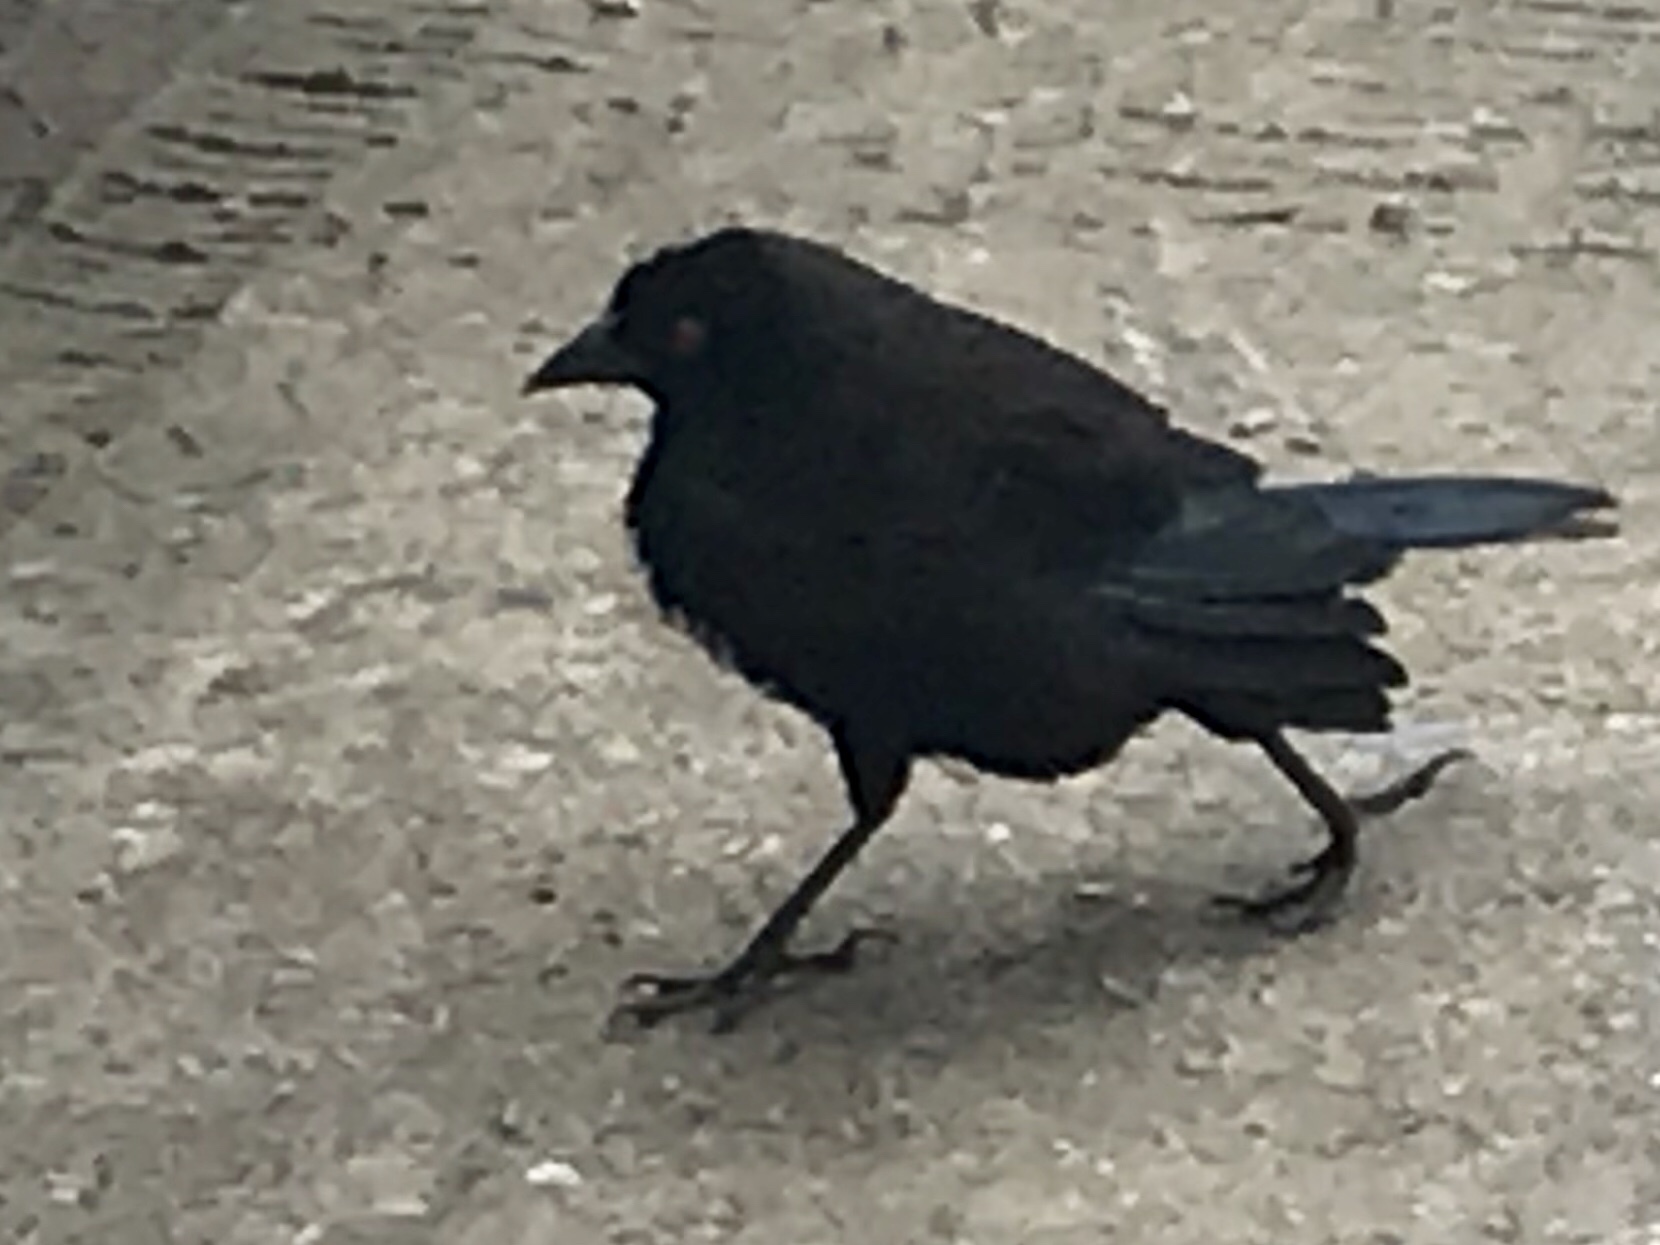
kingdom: Animalia
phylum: Chordata
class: Aves
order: Passeriformes
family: Icteridae
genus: Molothrus
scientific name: Molothrus aeneus
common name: Bronzed cowbird
